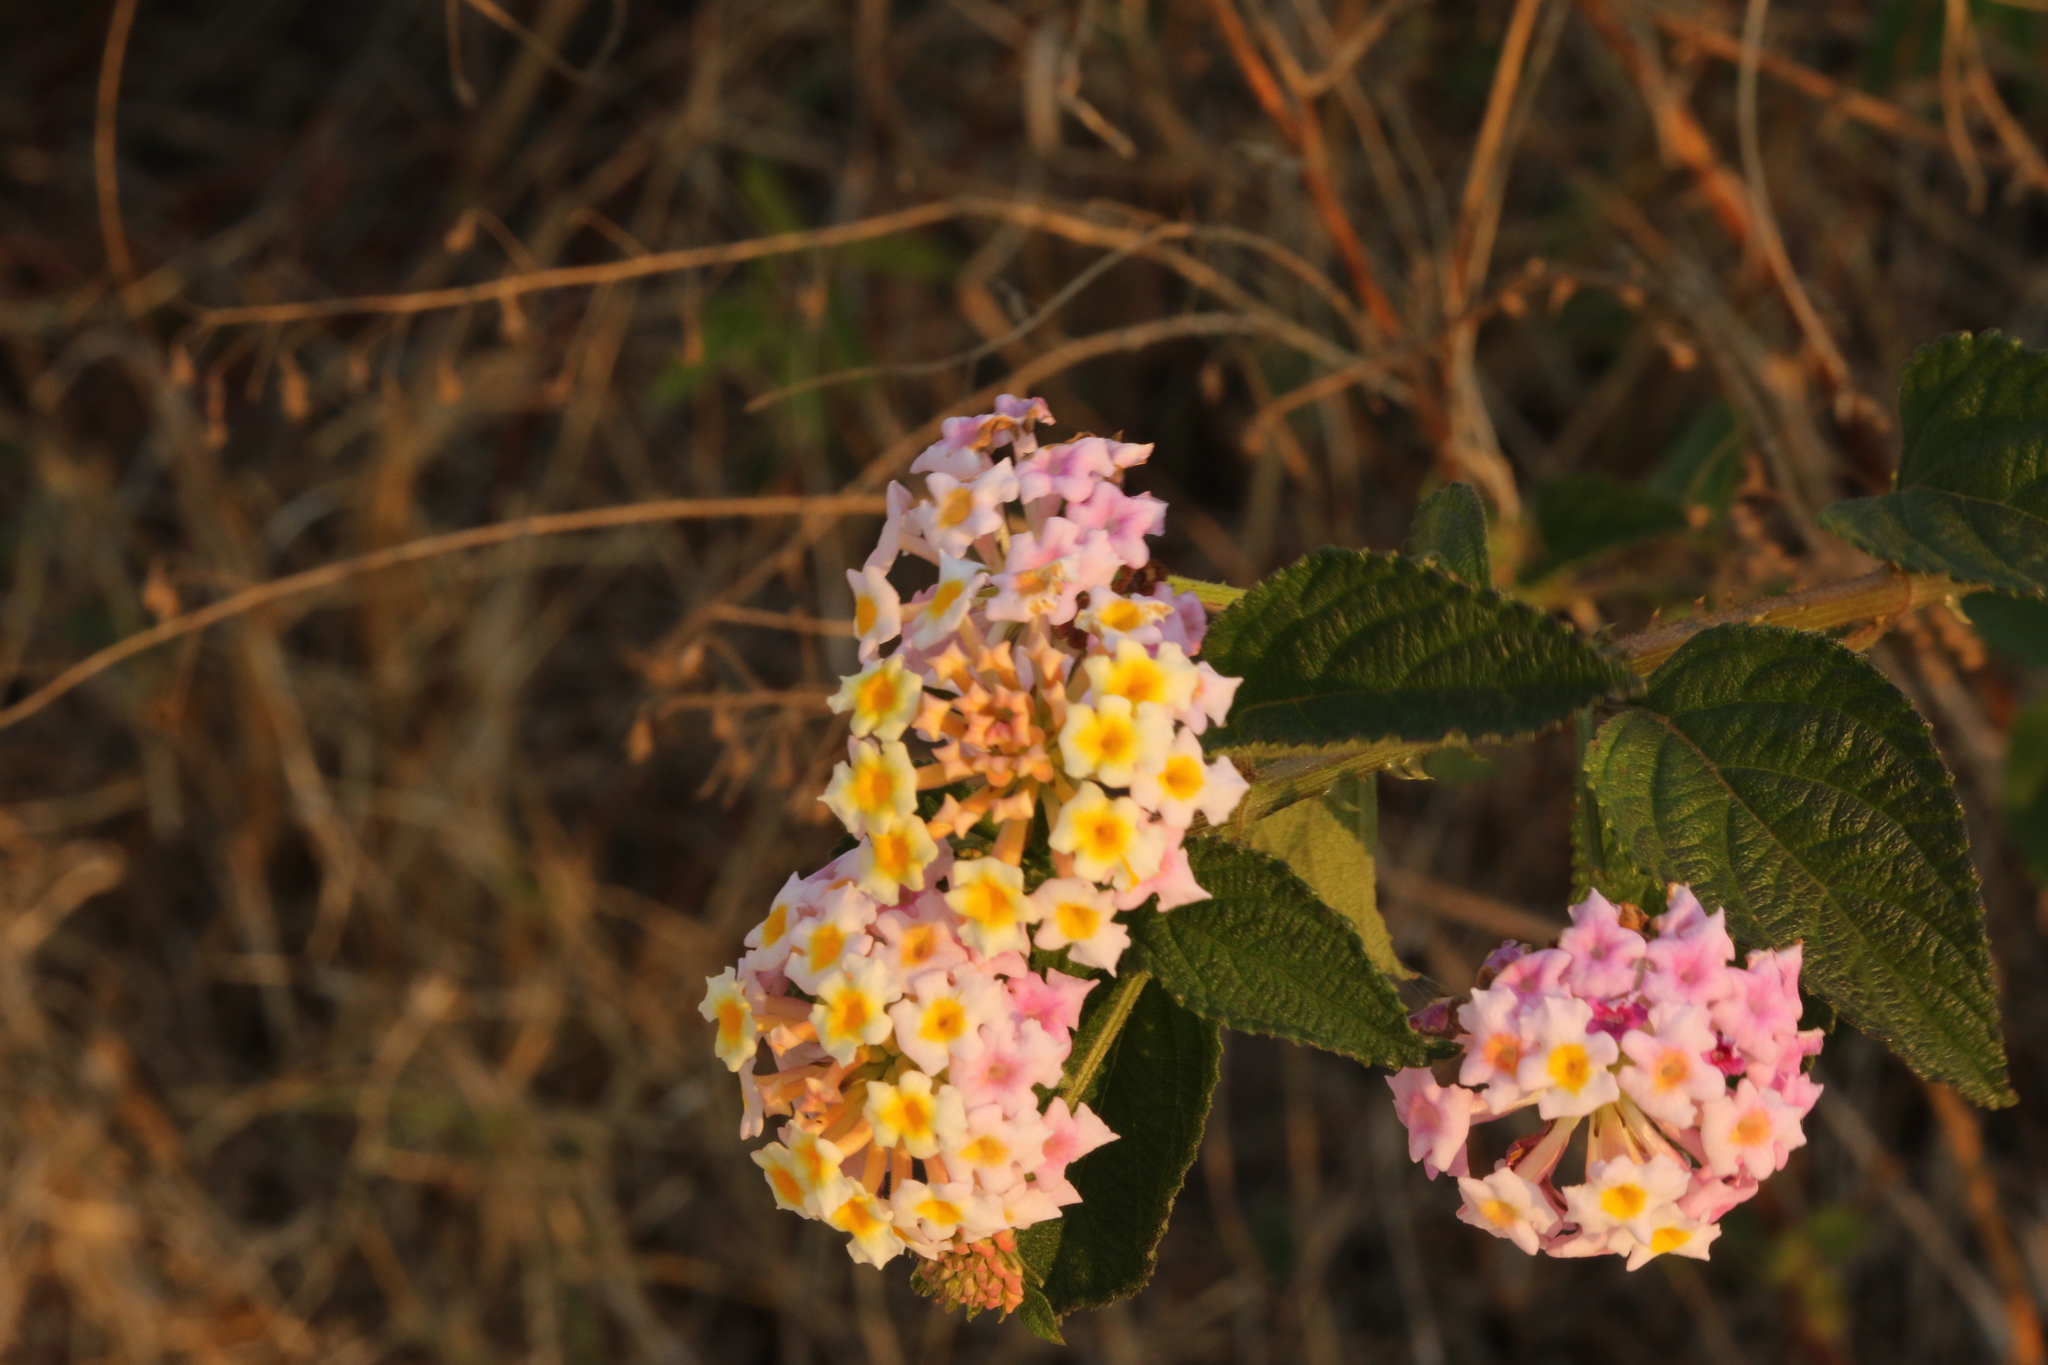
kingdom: Plantae
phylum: Tracheophyta
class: Magnoliopsida
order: Lamiales
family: Verbenaceae
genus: Lantana
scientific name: Lantana camara
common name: Lantana
